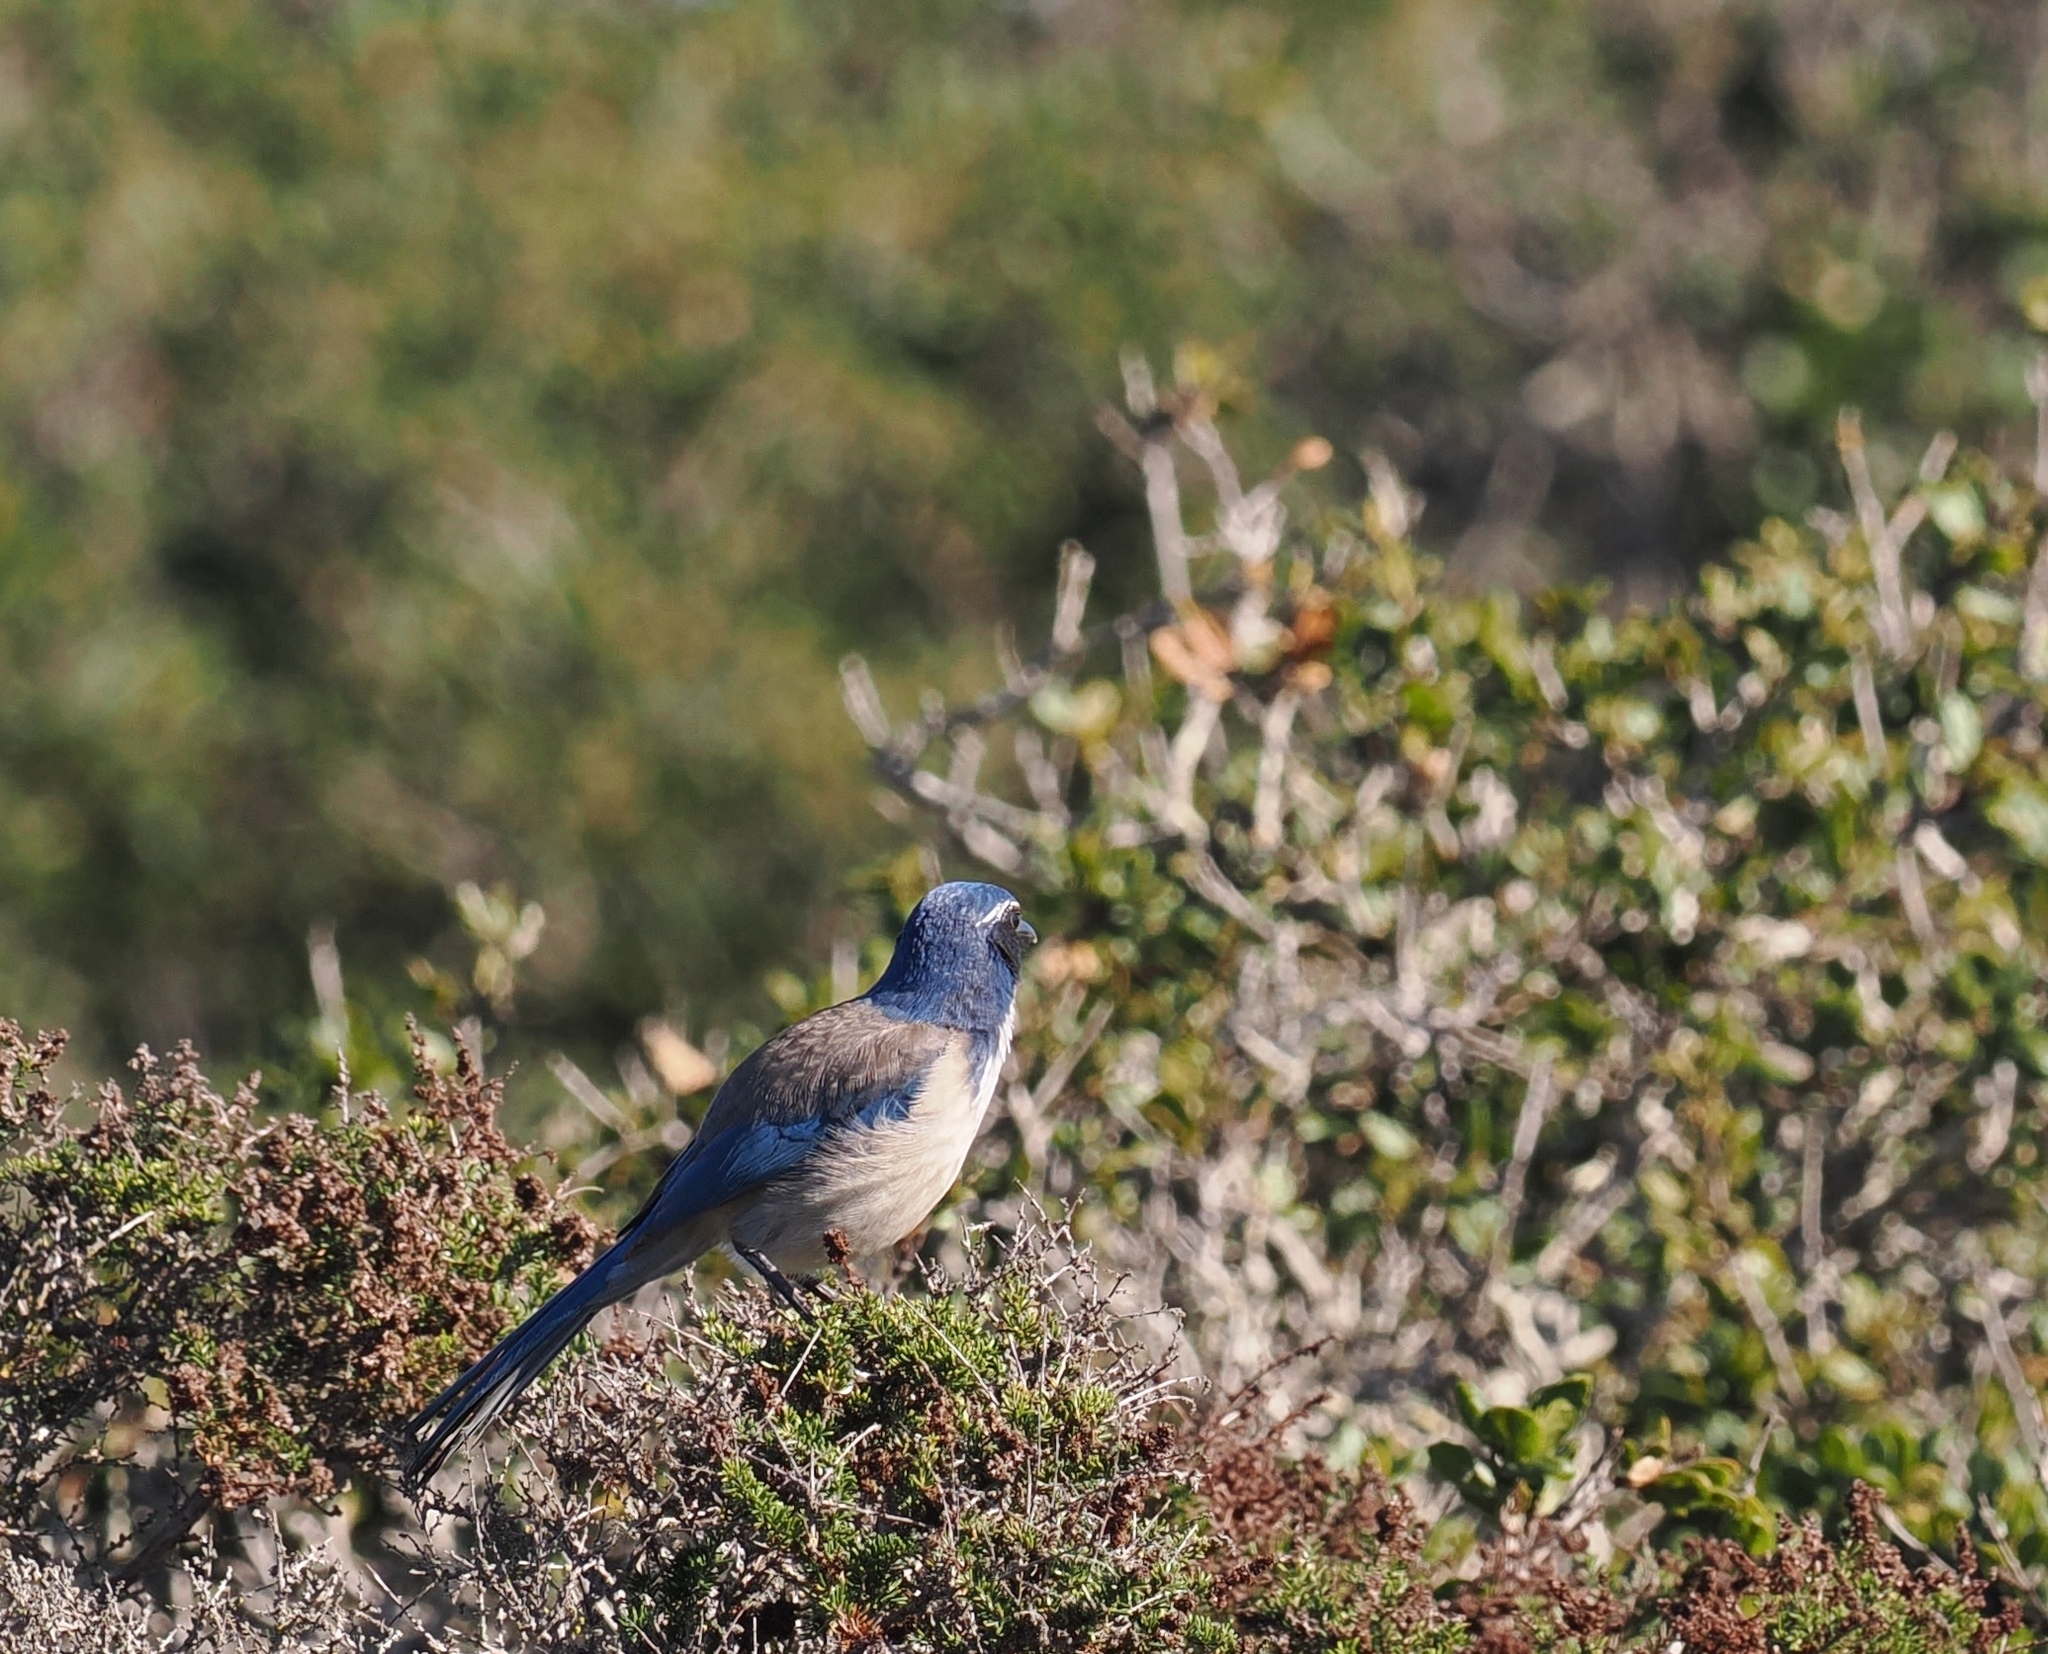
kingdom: Animalia
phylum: Chordata
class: Aves
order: Passeriformes
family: Corvidae
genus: Aphelocoma
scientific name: Aphelocoma californica
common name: California scrub-jay
